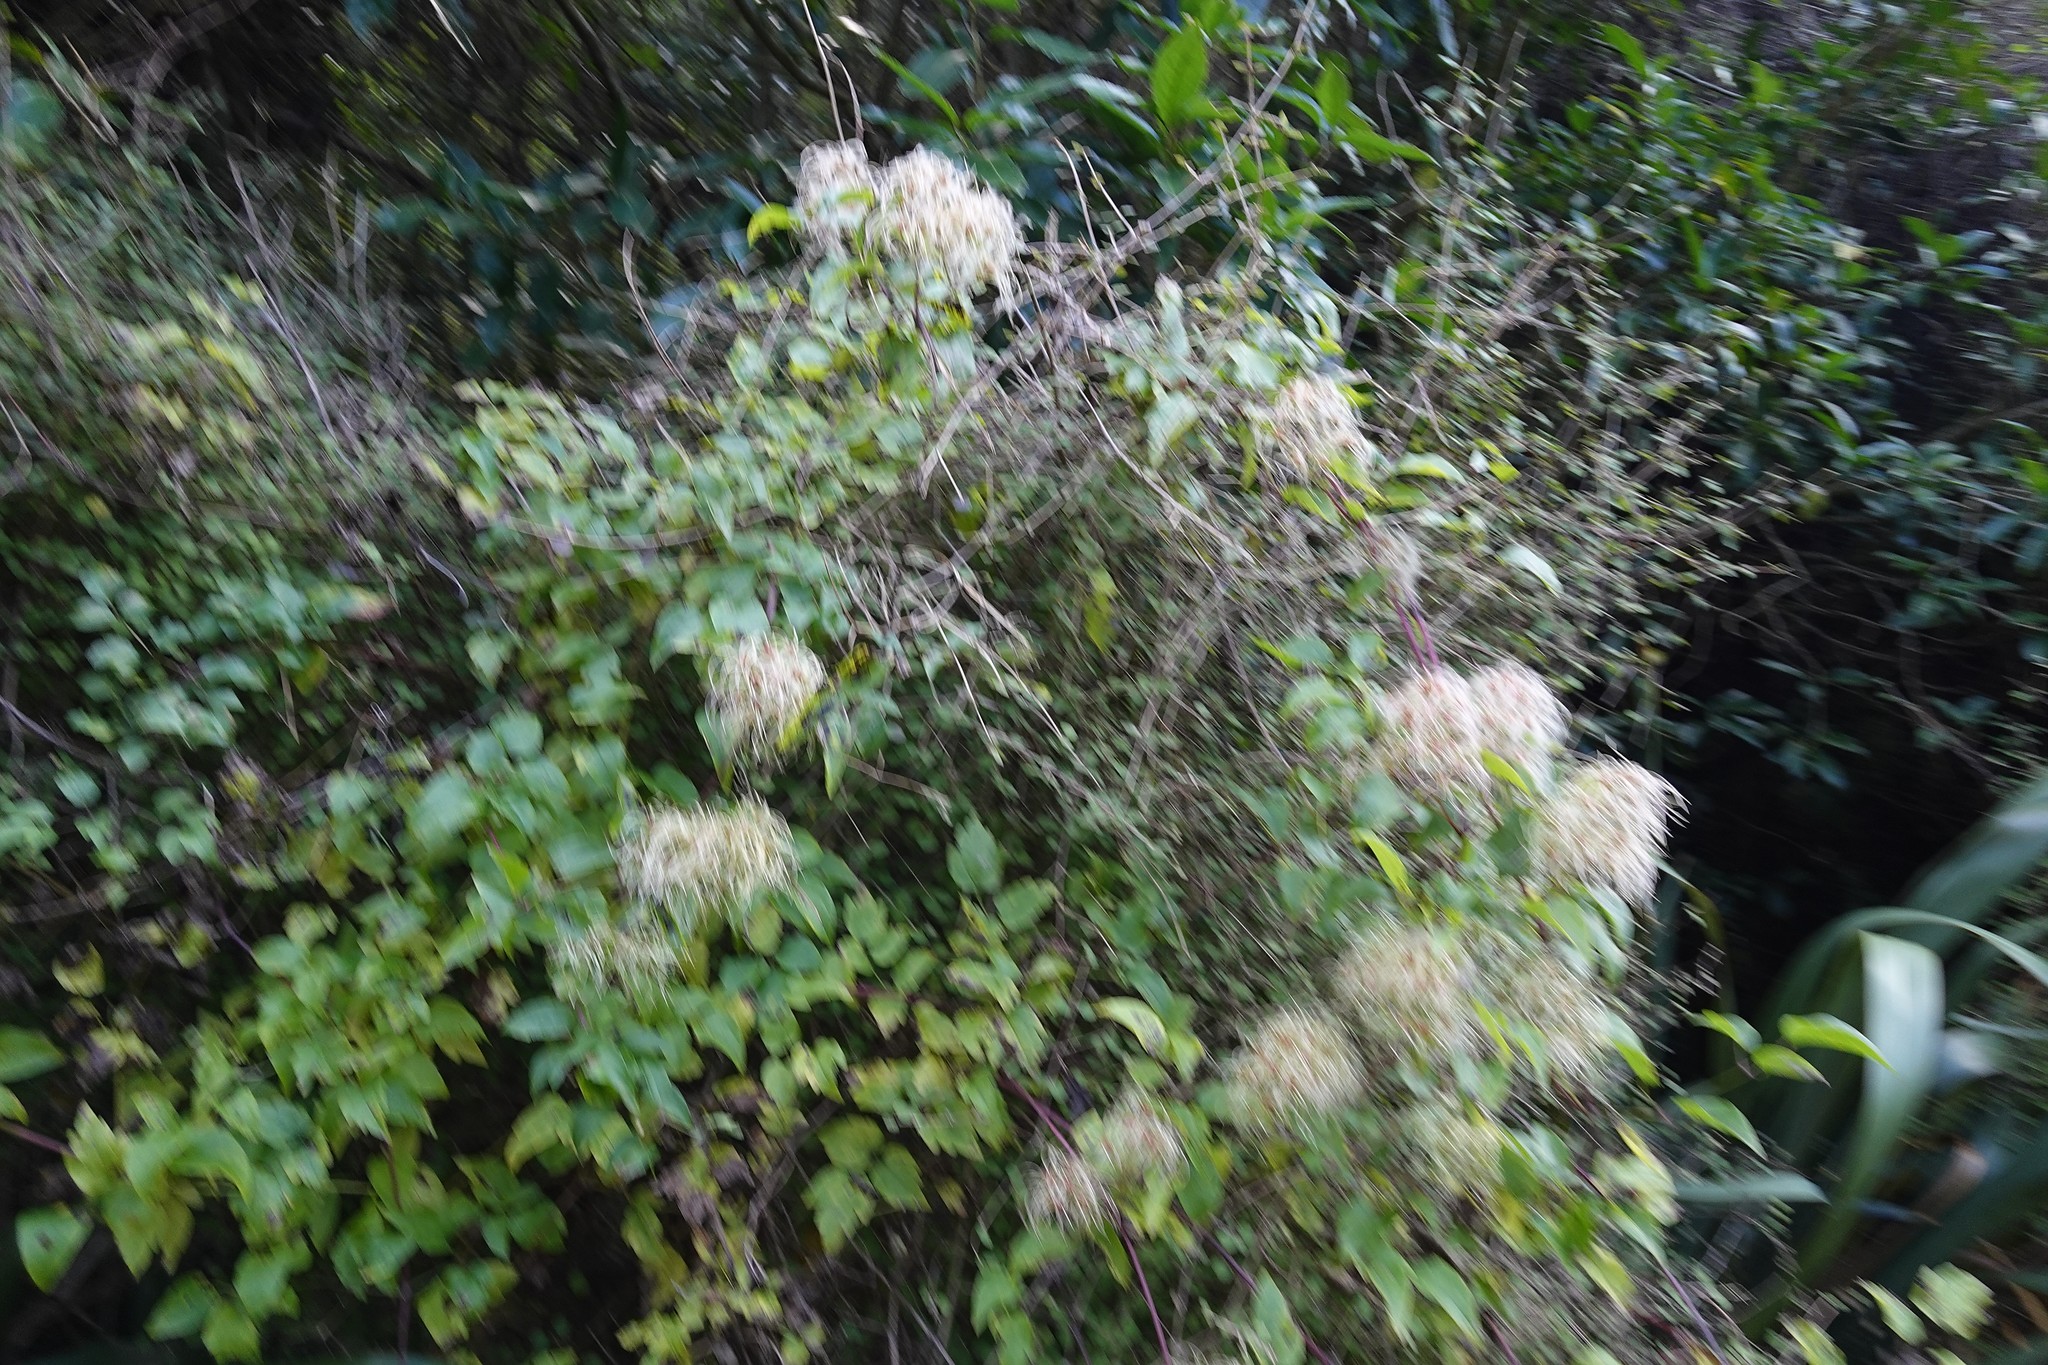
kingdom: Plantae
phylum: Tracheophyta
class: Magnoliopsida
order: Ranunculales
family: Ranunculaceae
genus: Clematis
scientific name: Clematis vitalba
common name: Evergreen clematis
